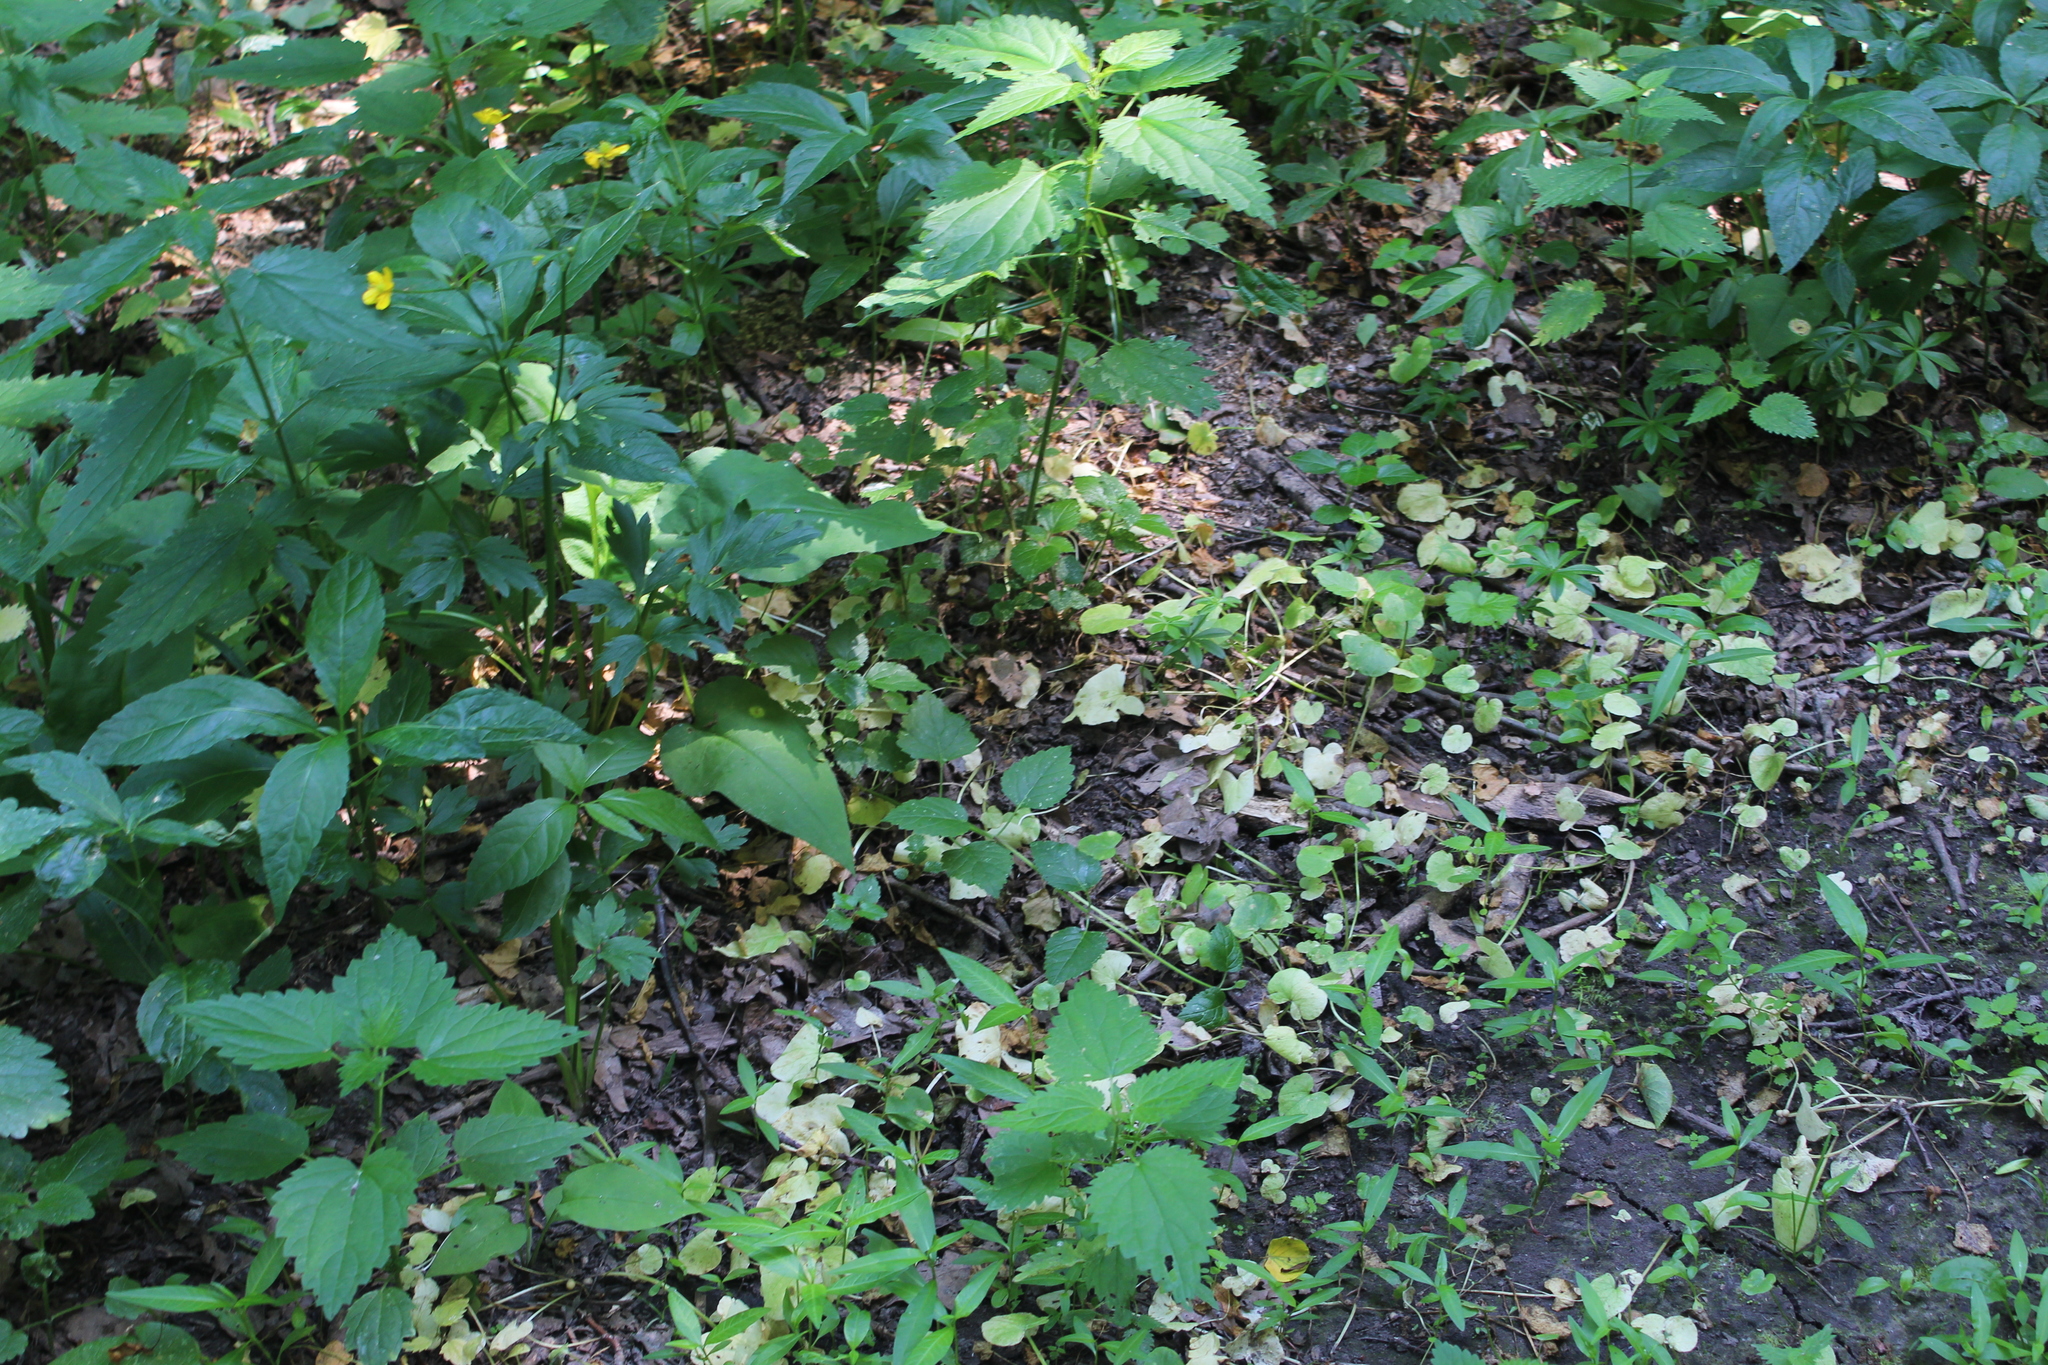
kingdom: Plantae
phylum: Tracheophyta
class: Magnoliopsida
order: Ranunculales
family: Ranunculaceae
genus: Ranunculus
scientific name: Ranunculus repens
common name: Creeping buttercup
